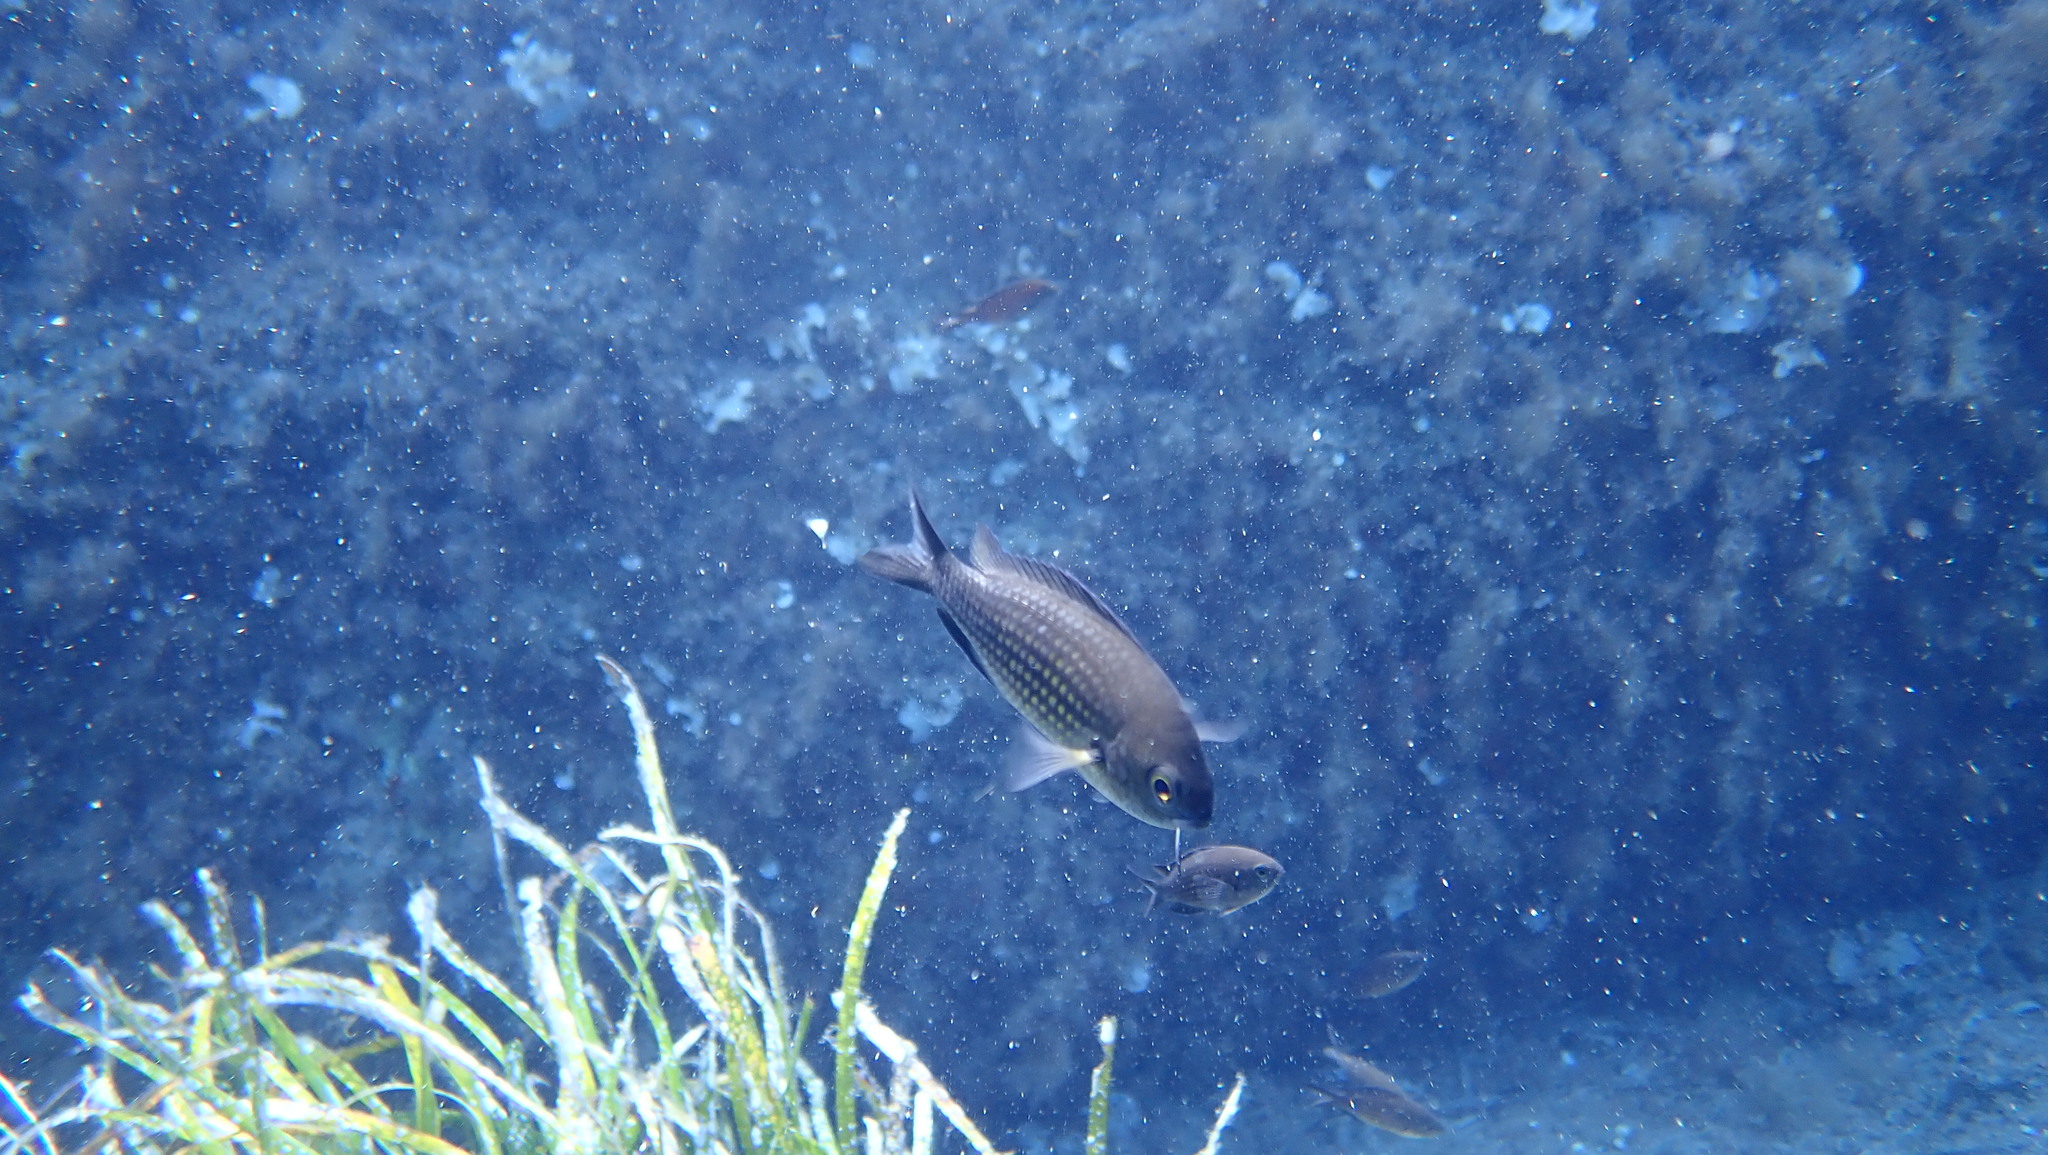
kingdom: Animalia
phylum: Chordata
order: Perciformes
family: Pomacentridae
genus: Chromis
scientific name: Chromis chromis
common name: Damselfish
